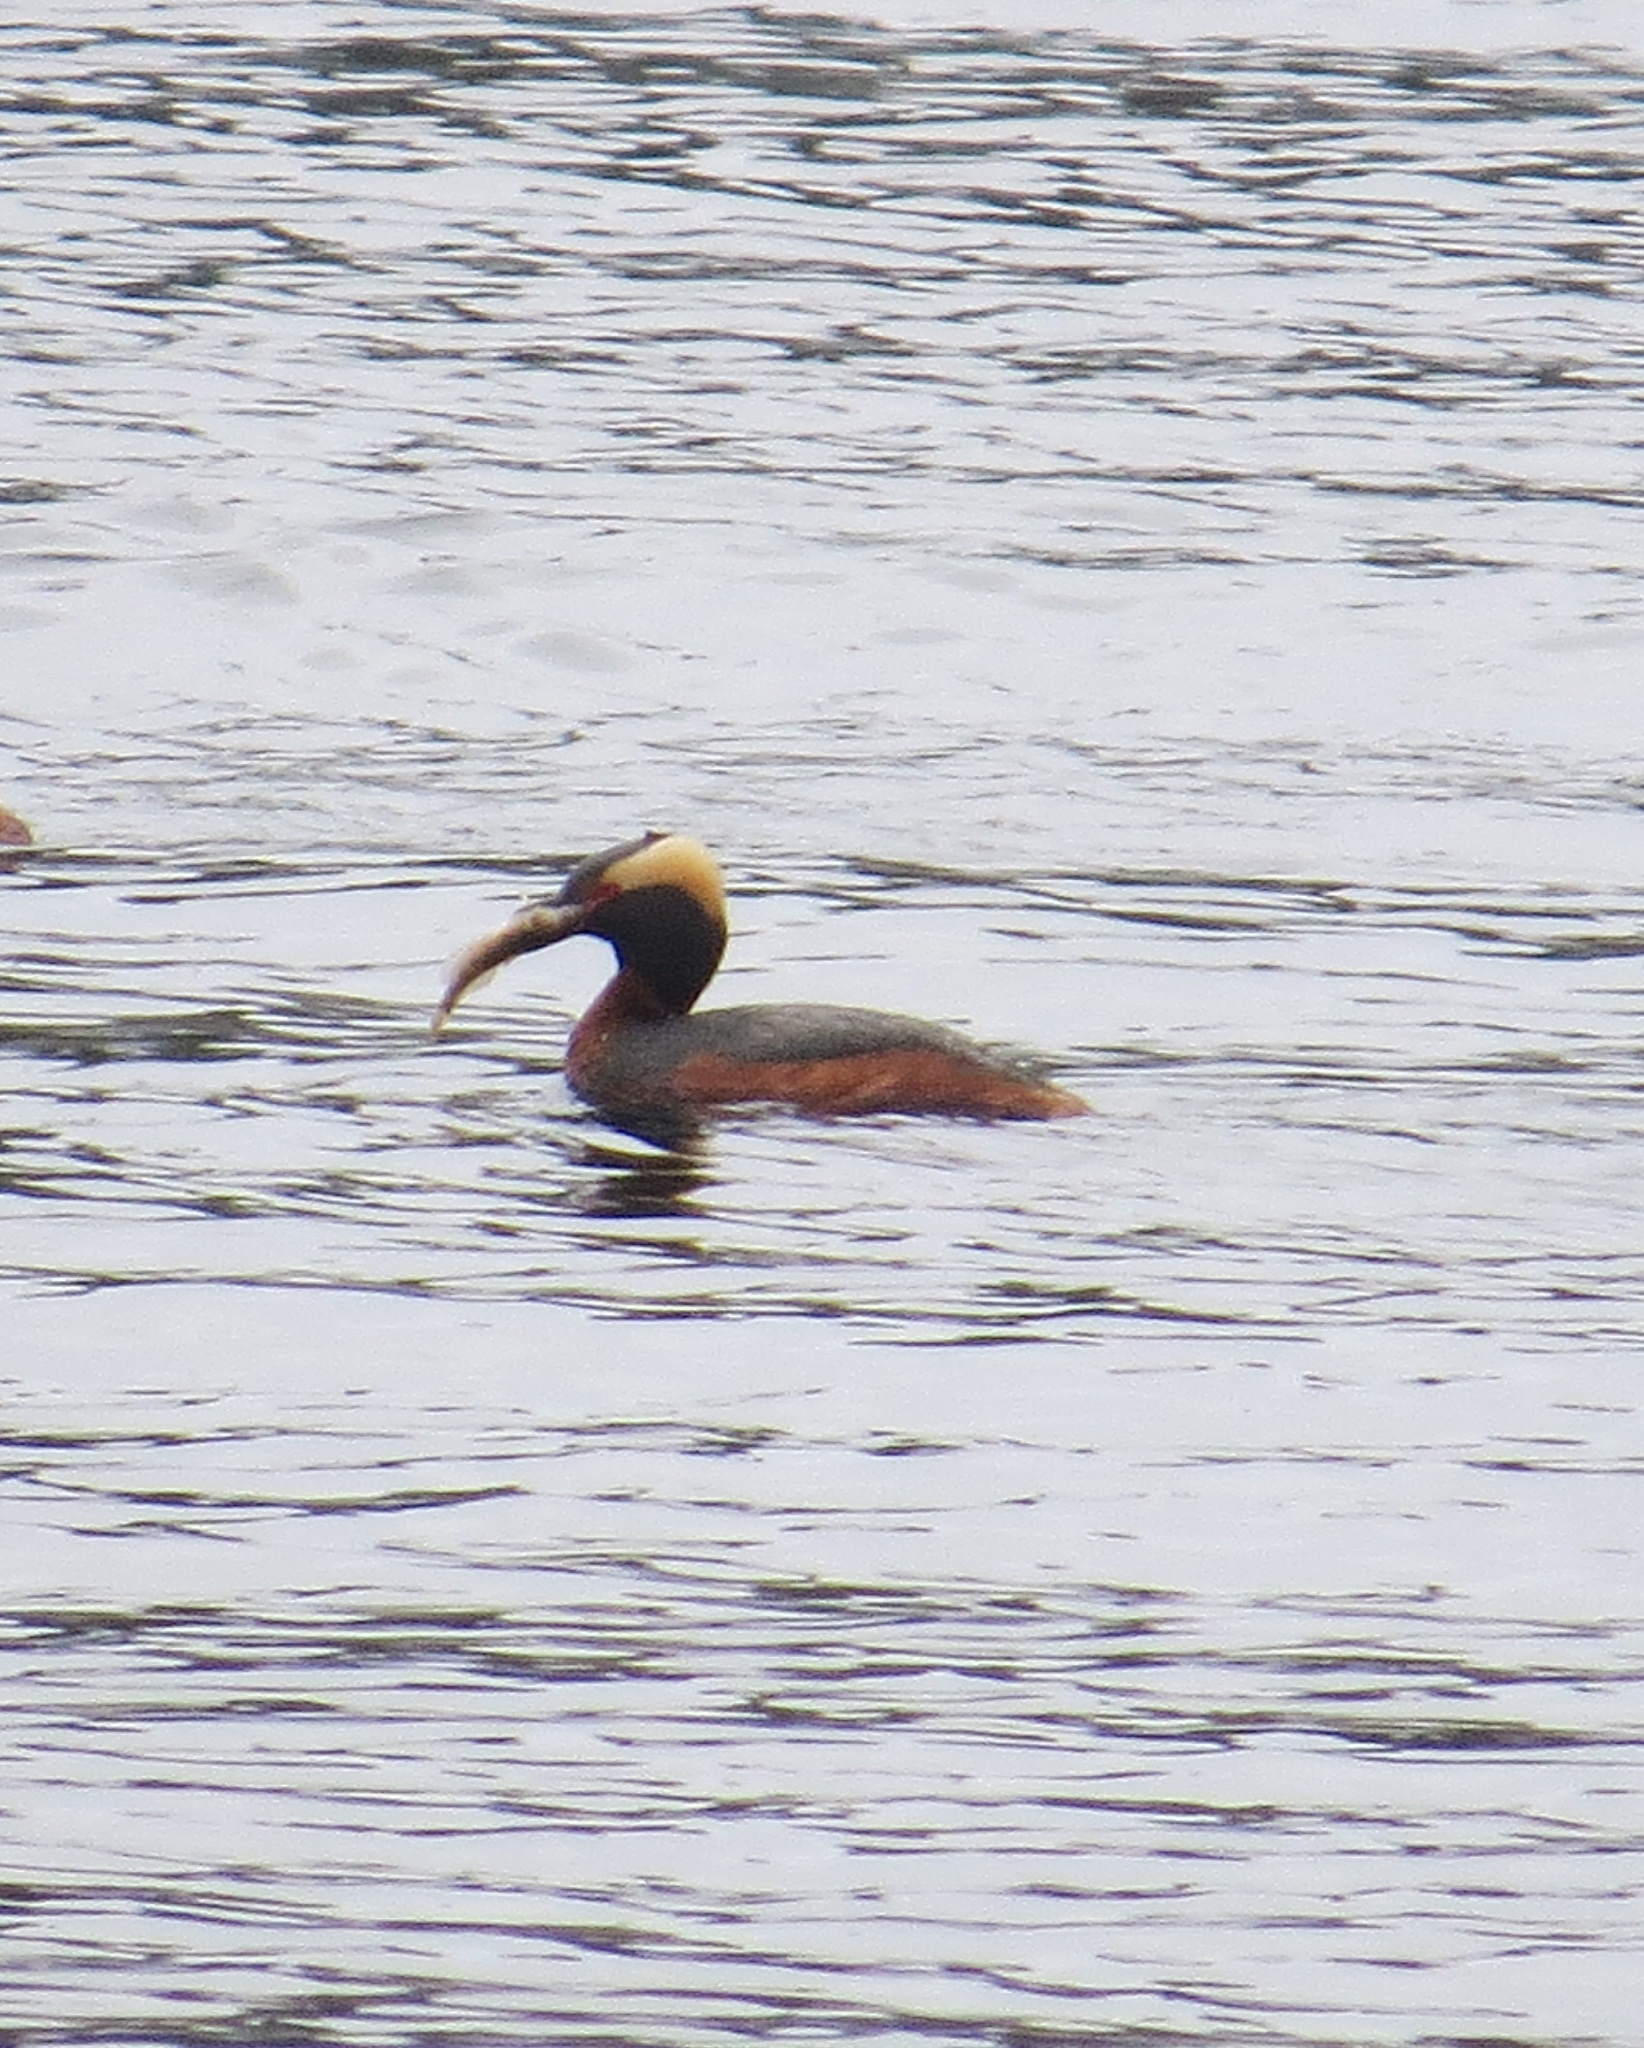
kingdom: Animalia
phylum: Chordata
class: Aves
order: Podicipediformes
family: Podicipedidae
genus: Podiceps
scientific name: Podiceps auritus
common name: Horned grebe
